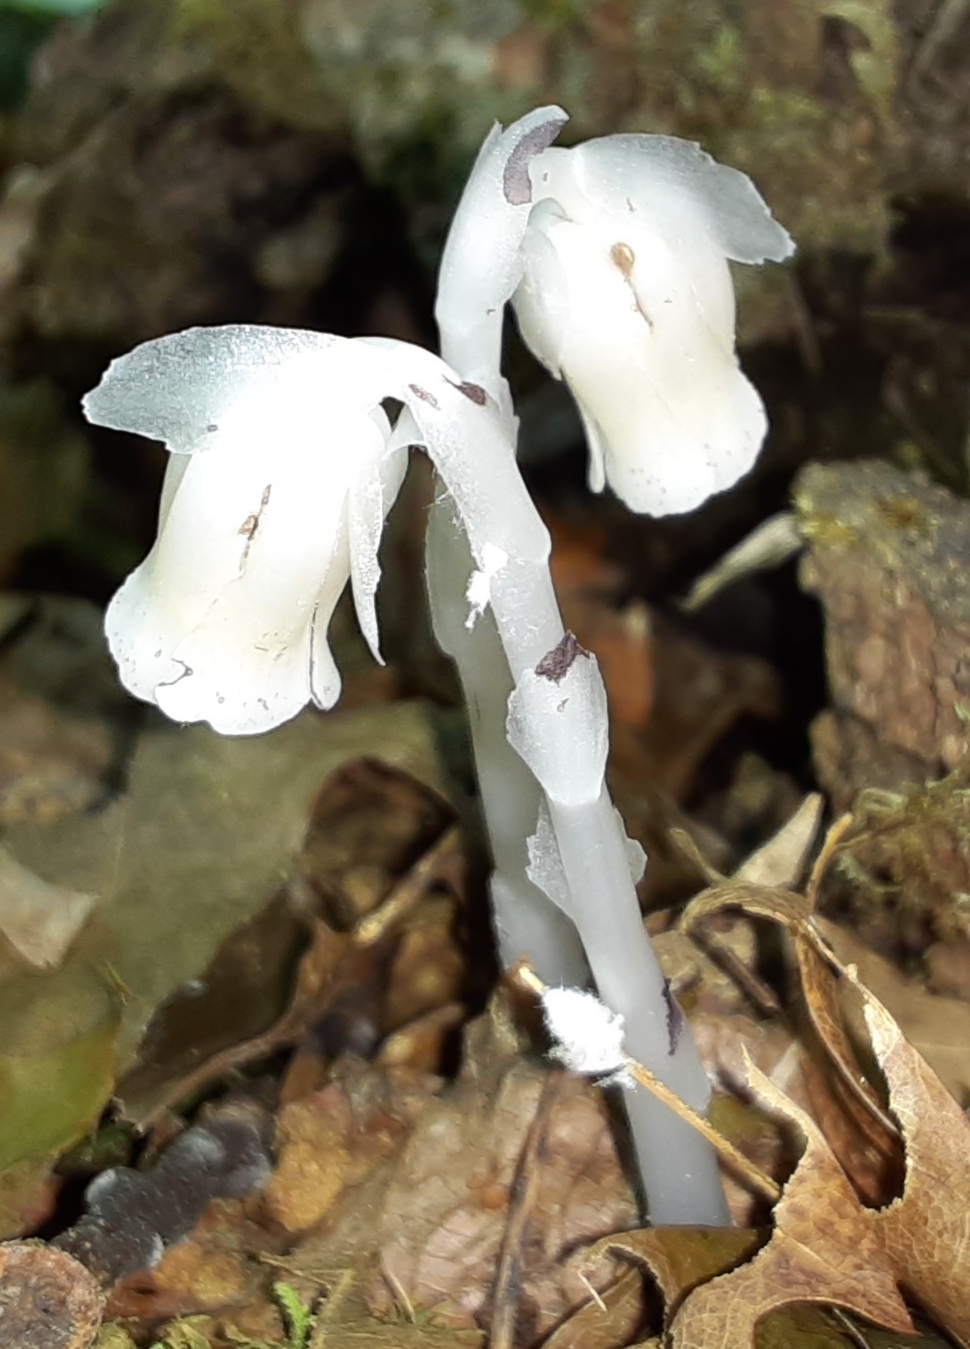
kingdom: Plantae
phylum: Tracheophyta
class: Magnoliopsida
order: Ericales
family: Ericaceae
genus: Monotropa
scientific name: Monotropa uniflora
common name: Convulsion root
